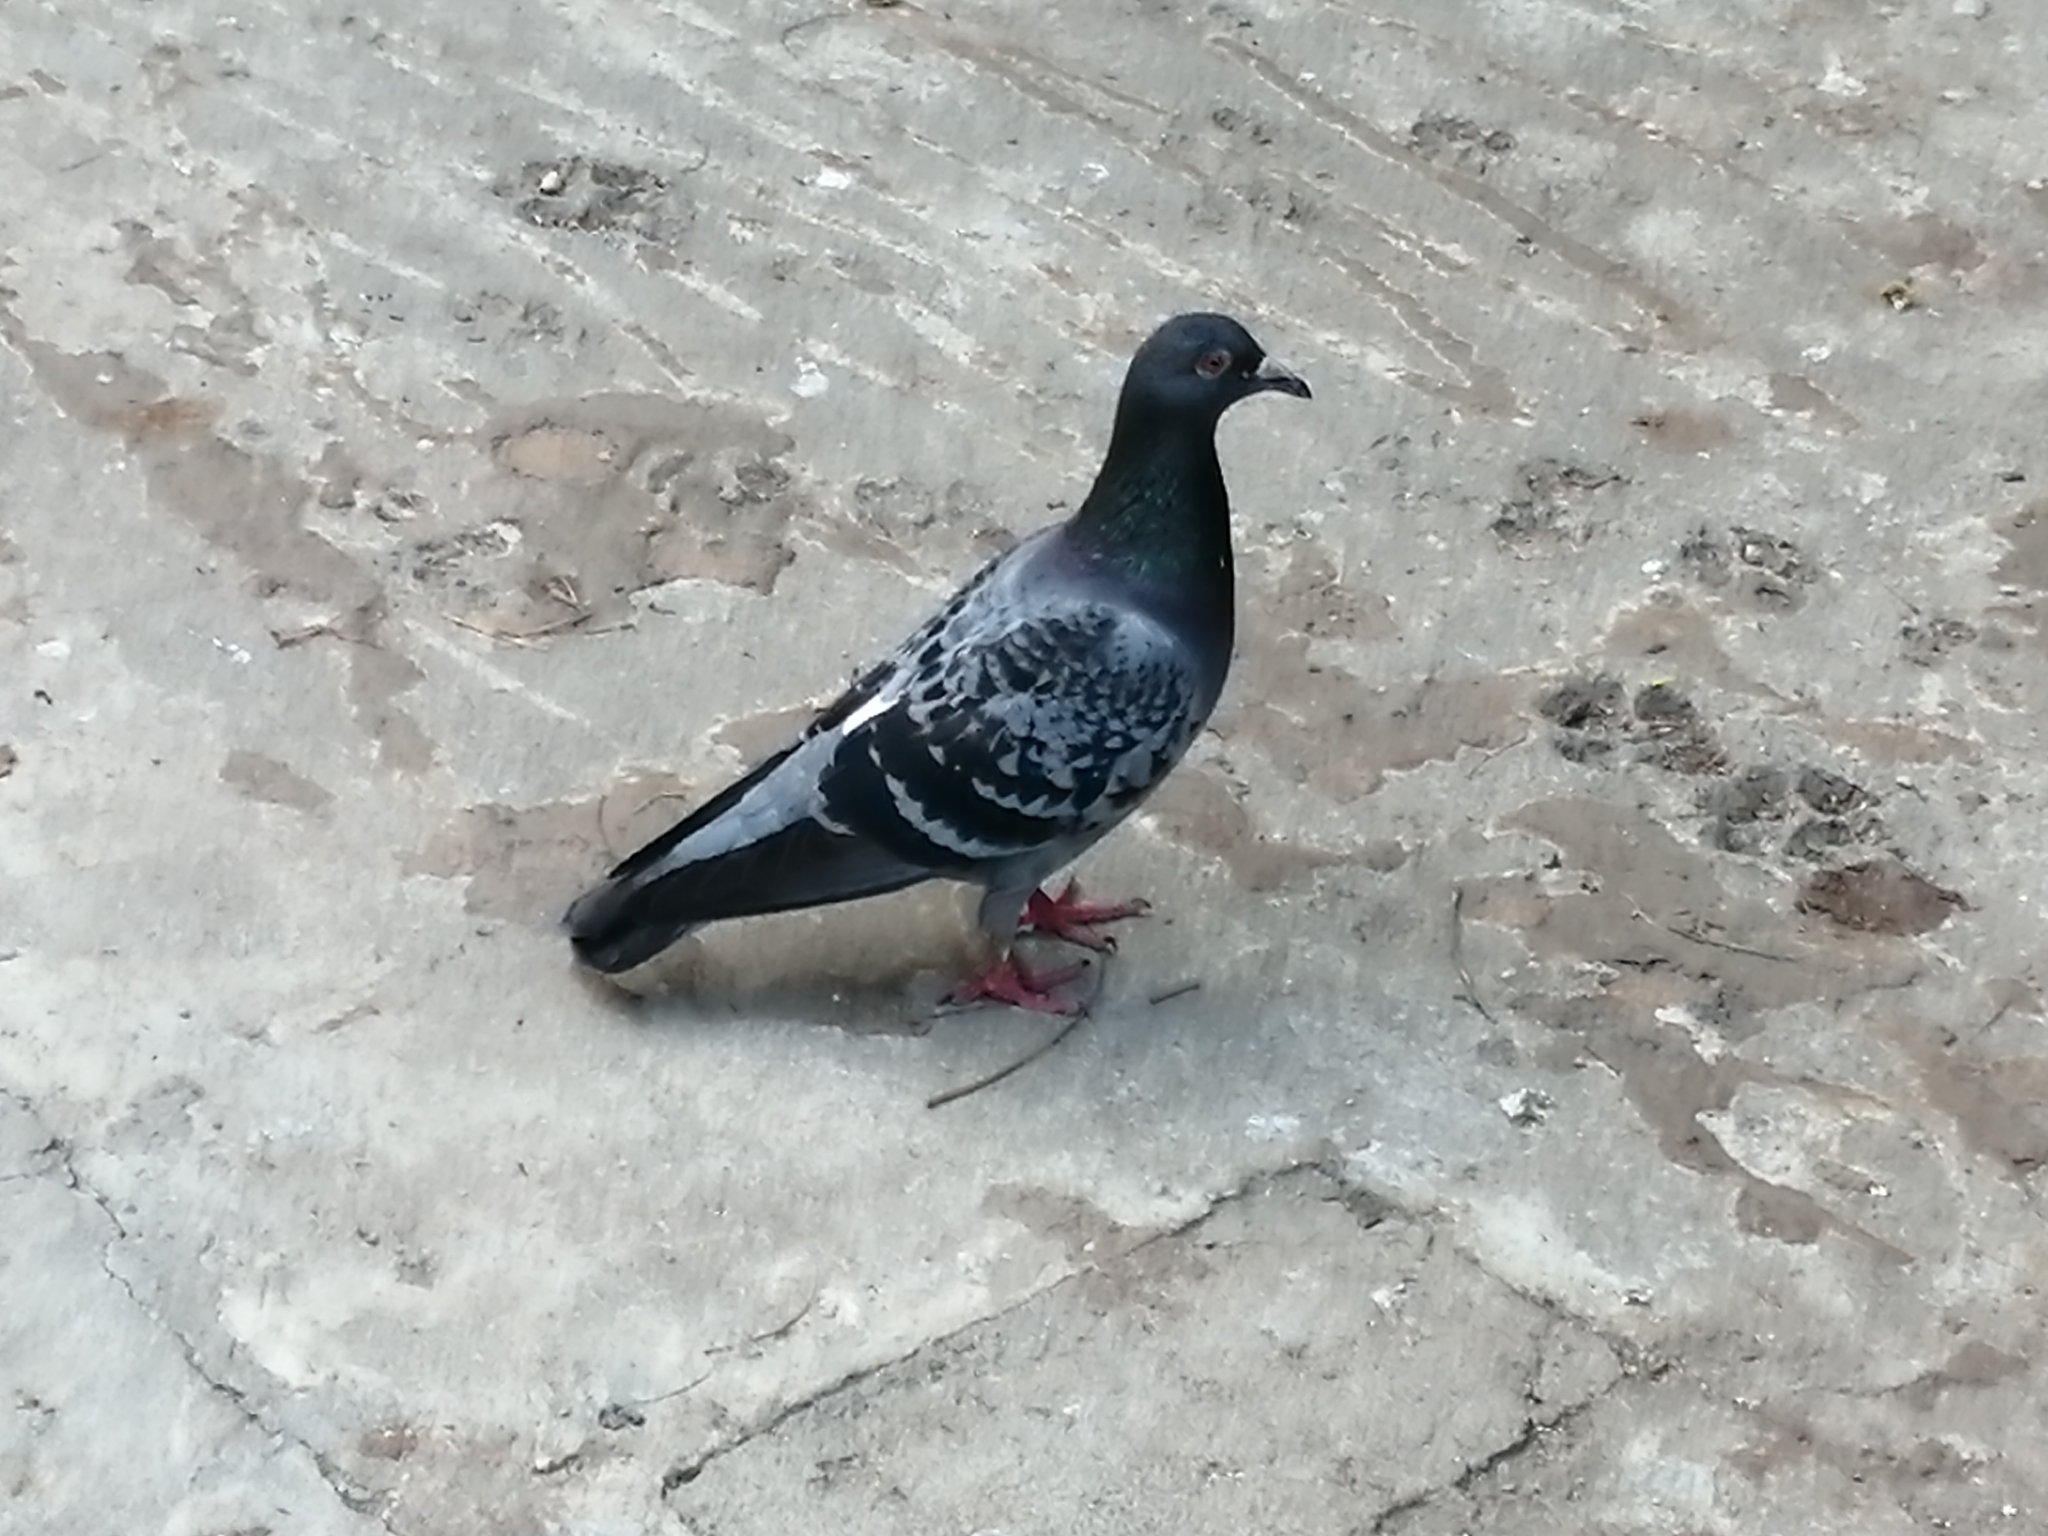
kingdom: Animalia
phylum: Chordata
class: Aves
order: Columbiformes
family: Columbidae
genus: Columba
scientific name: Columba livia
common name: Rock pigeon
